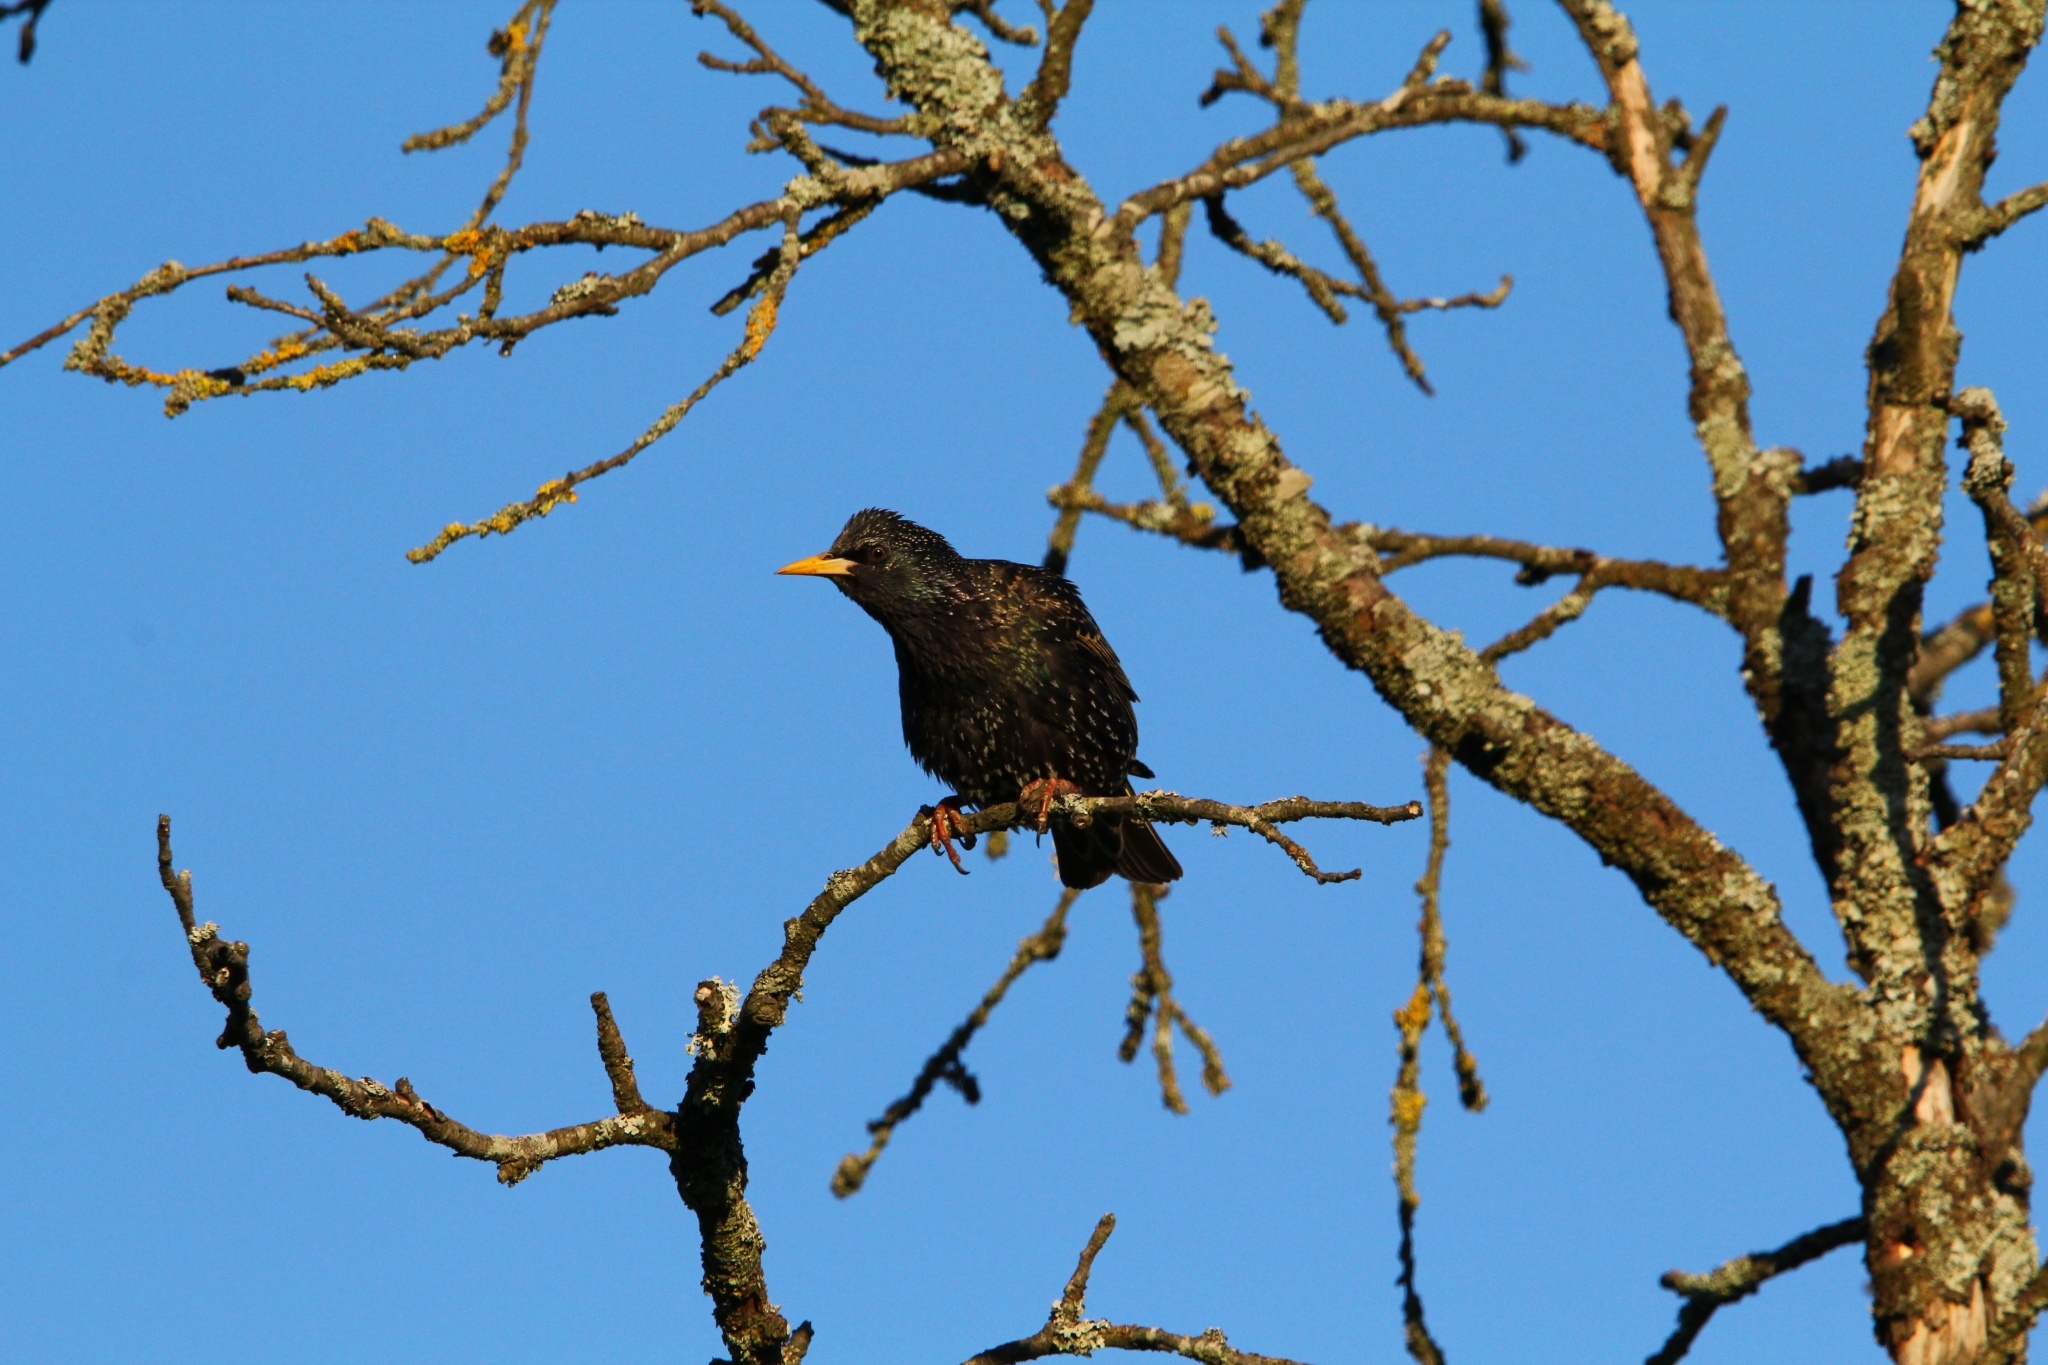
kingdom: Animalia
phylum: Chordata
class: Aves
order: Passeriformes
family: Sturnidae
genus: Sturnus
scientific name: Sturnus vulgaris
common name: Common starling
